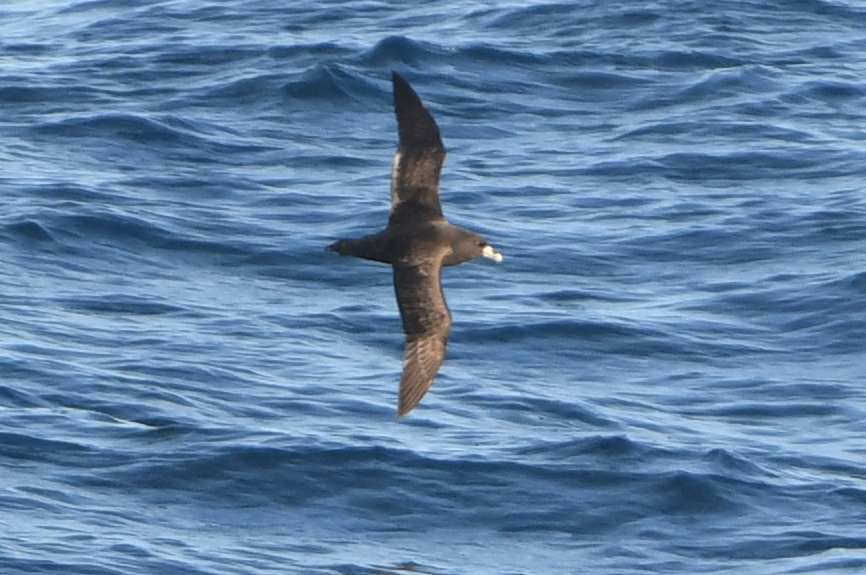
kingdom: Animalia
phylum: Chordata
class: Aves
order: Procellariiformes
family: Procellariidae
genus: Procellaria
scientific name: Procellaria aequinoctialis
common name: White-chinned petrel
